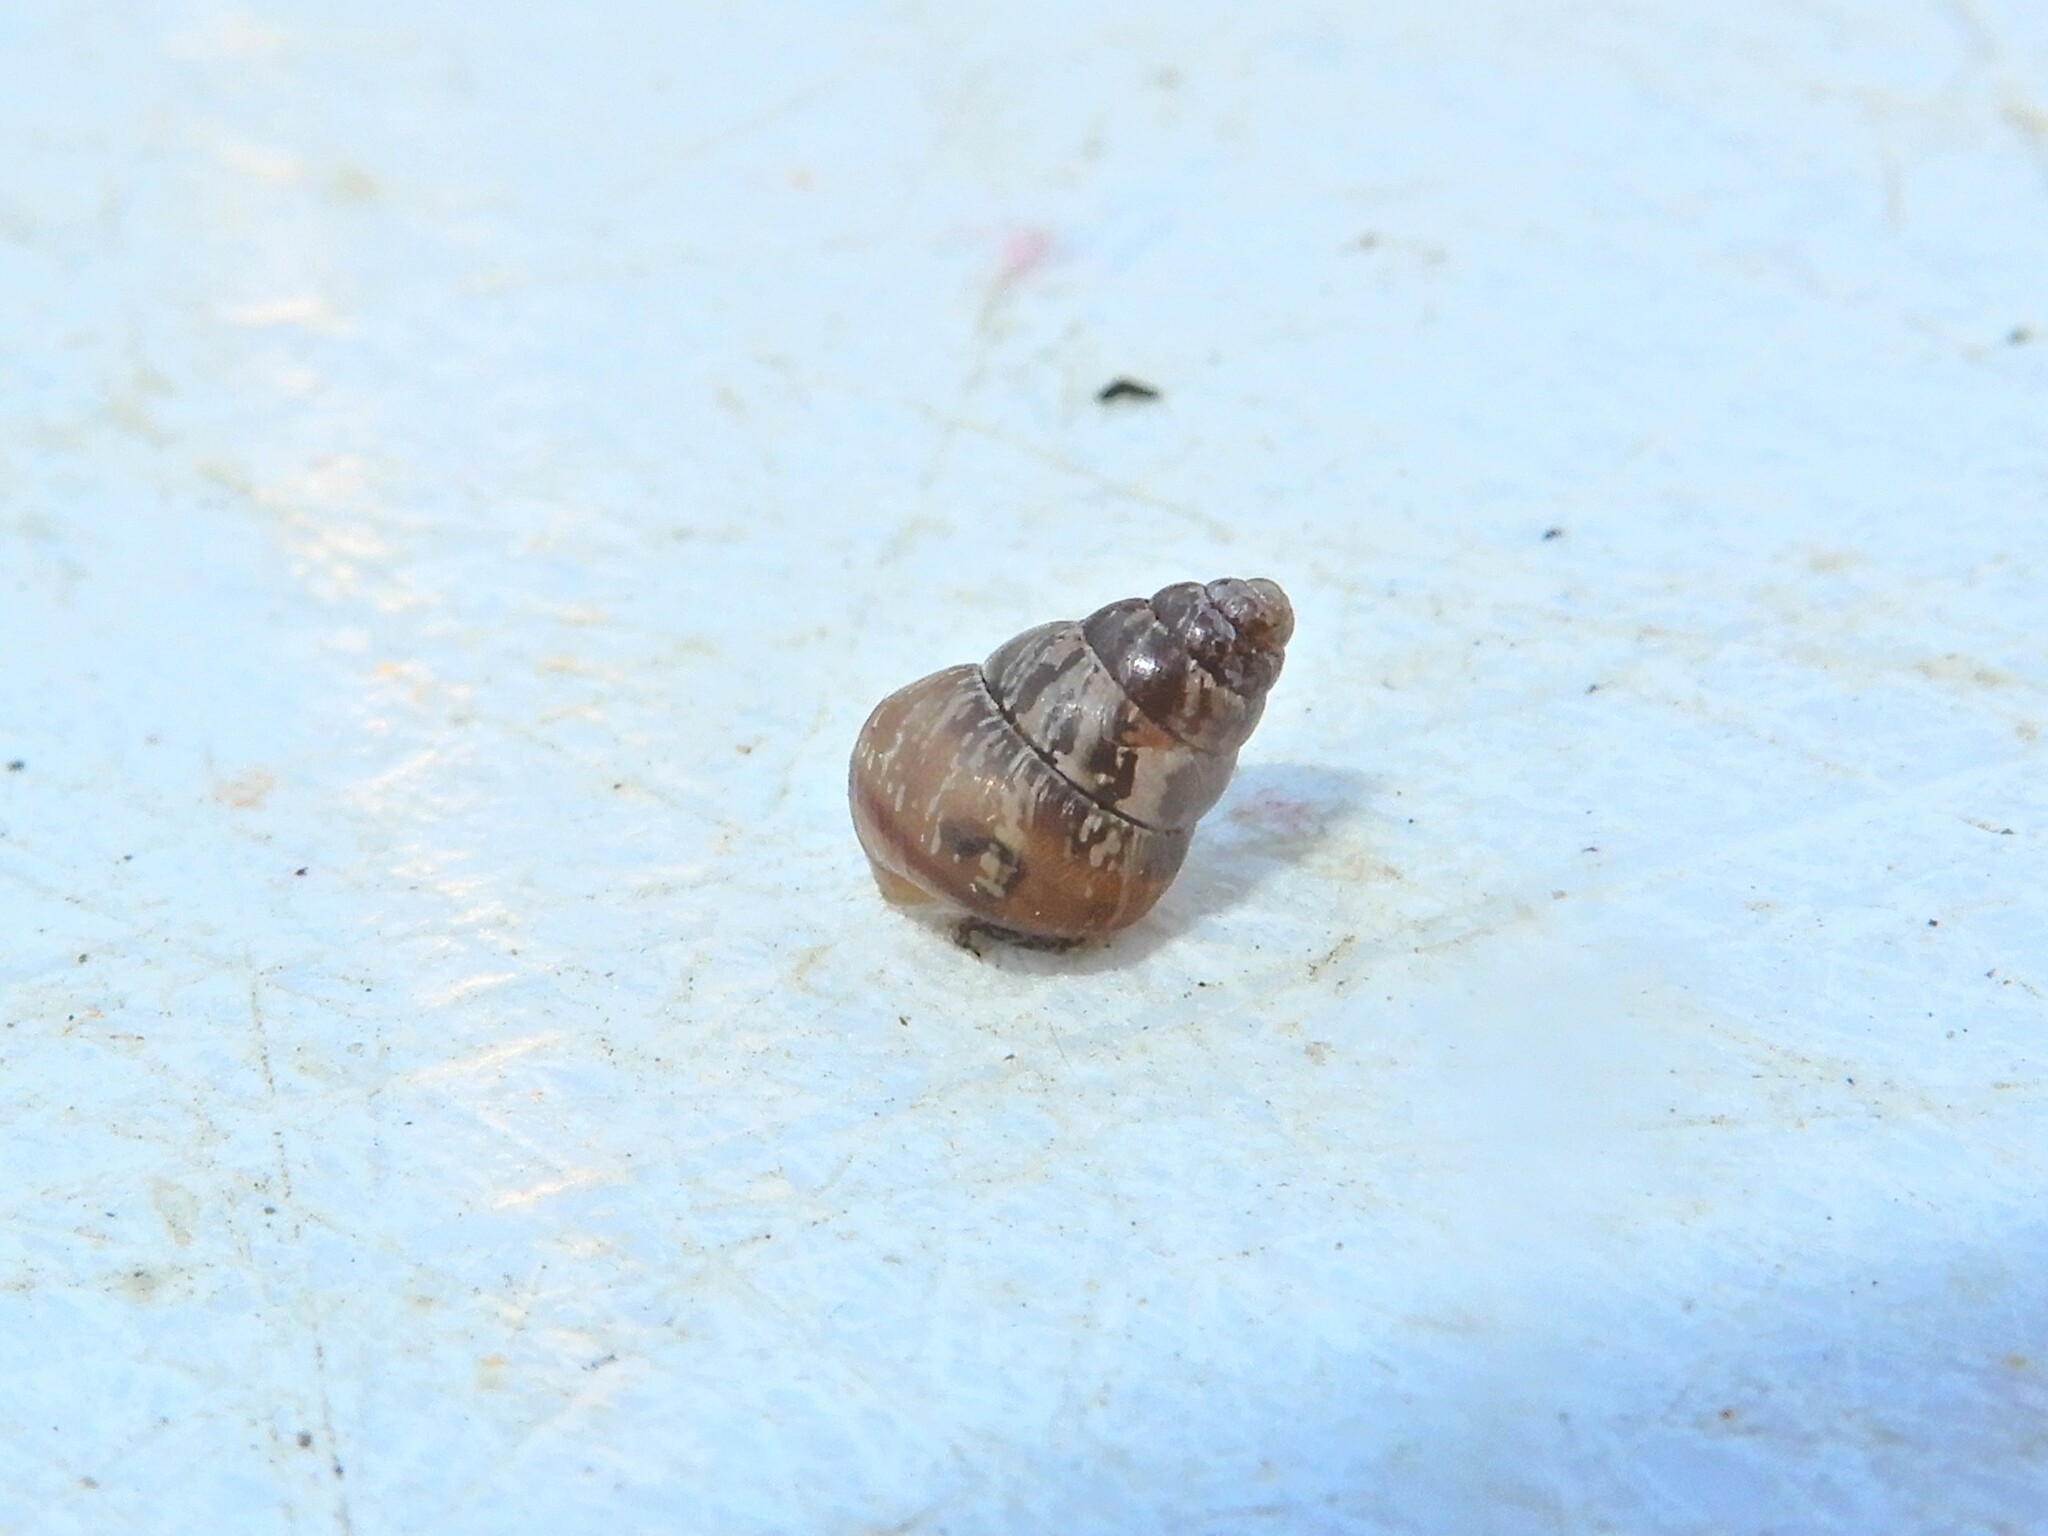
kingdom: Animalia
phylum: Mollusca
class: Gastropoda
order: Stylommatophora
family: Geomitridae
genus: Cochlicella
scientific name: Cochlicella barbara
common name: Potbellied helicellid
